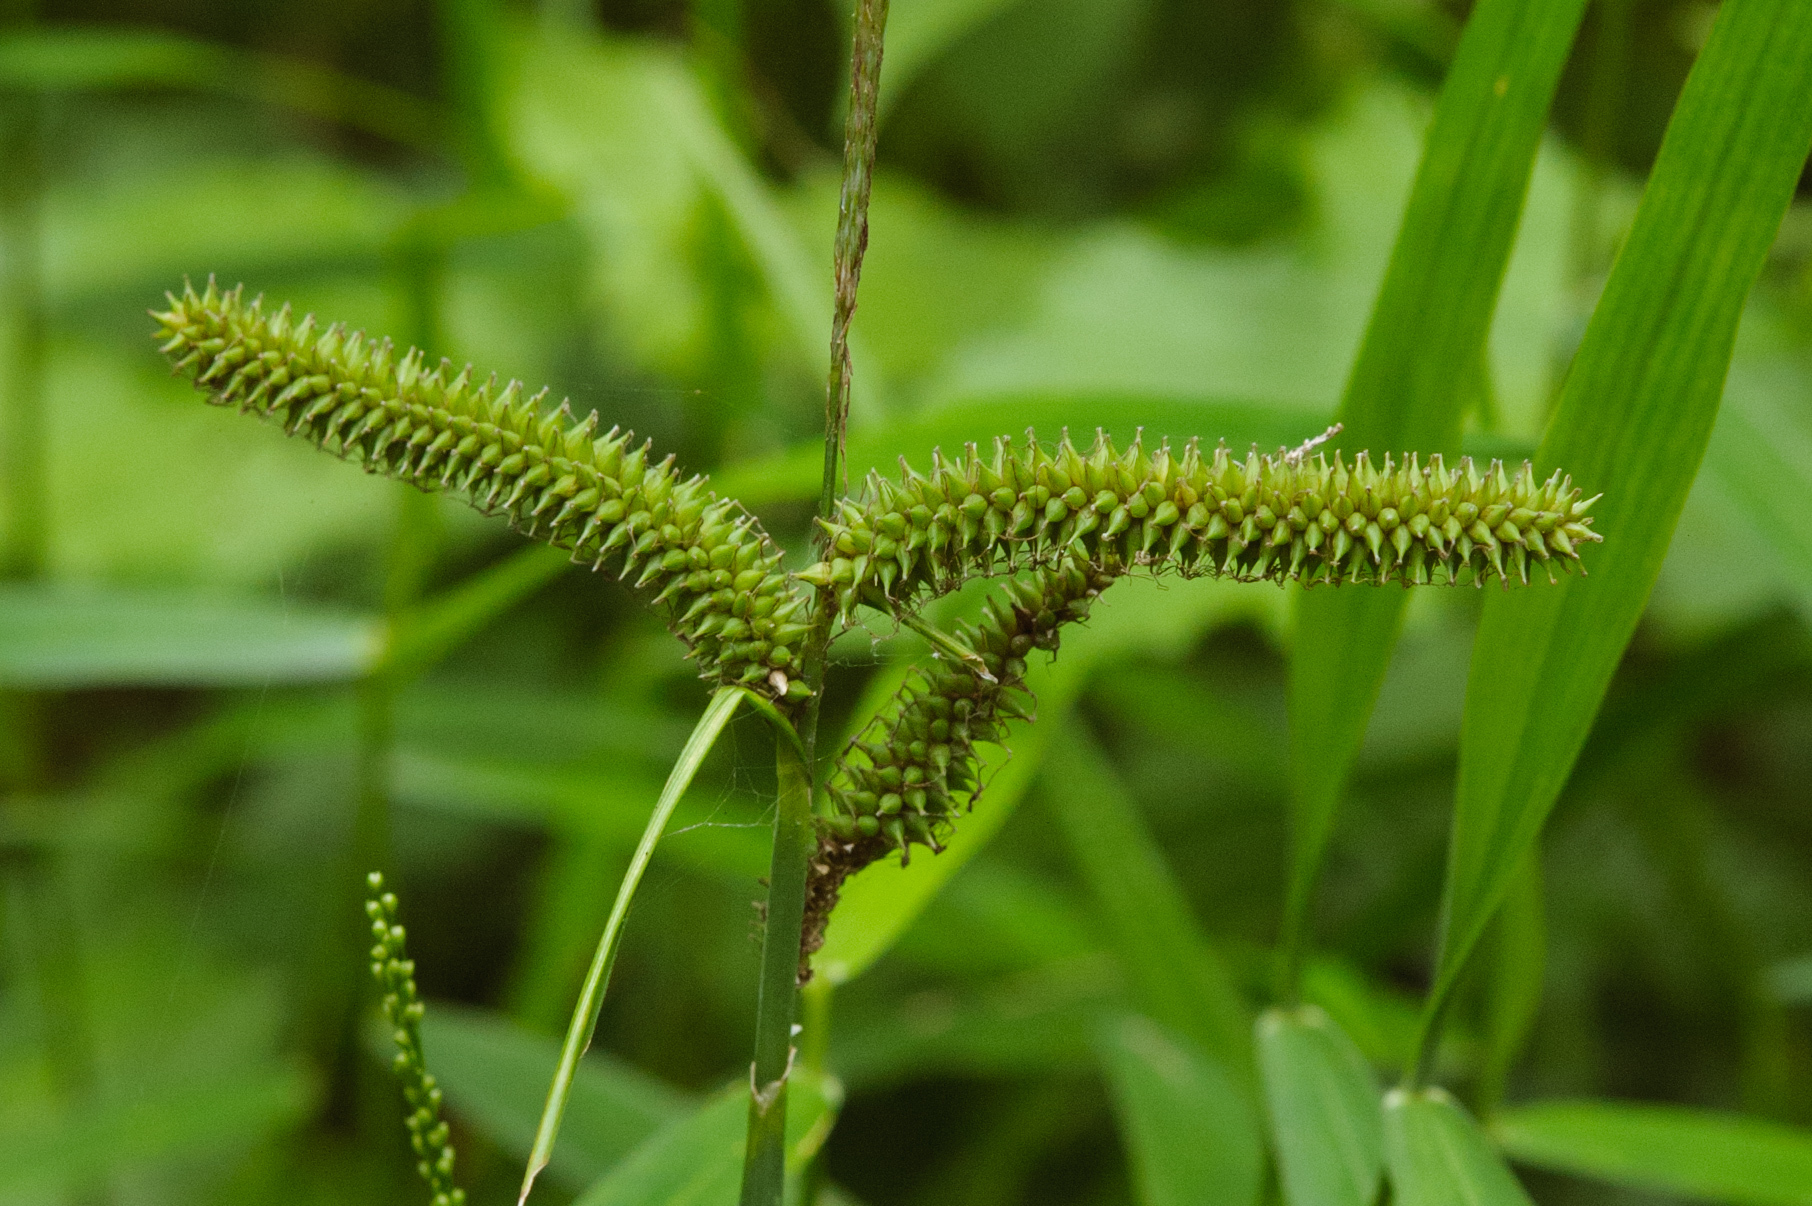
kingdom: Plantae
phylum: Tracheophyta
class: Liliopsida
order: Poales
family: Cyperaceae
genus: Carex
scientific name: Carex doniana
